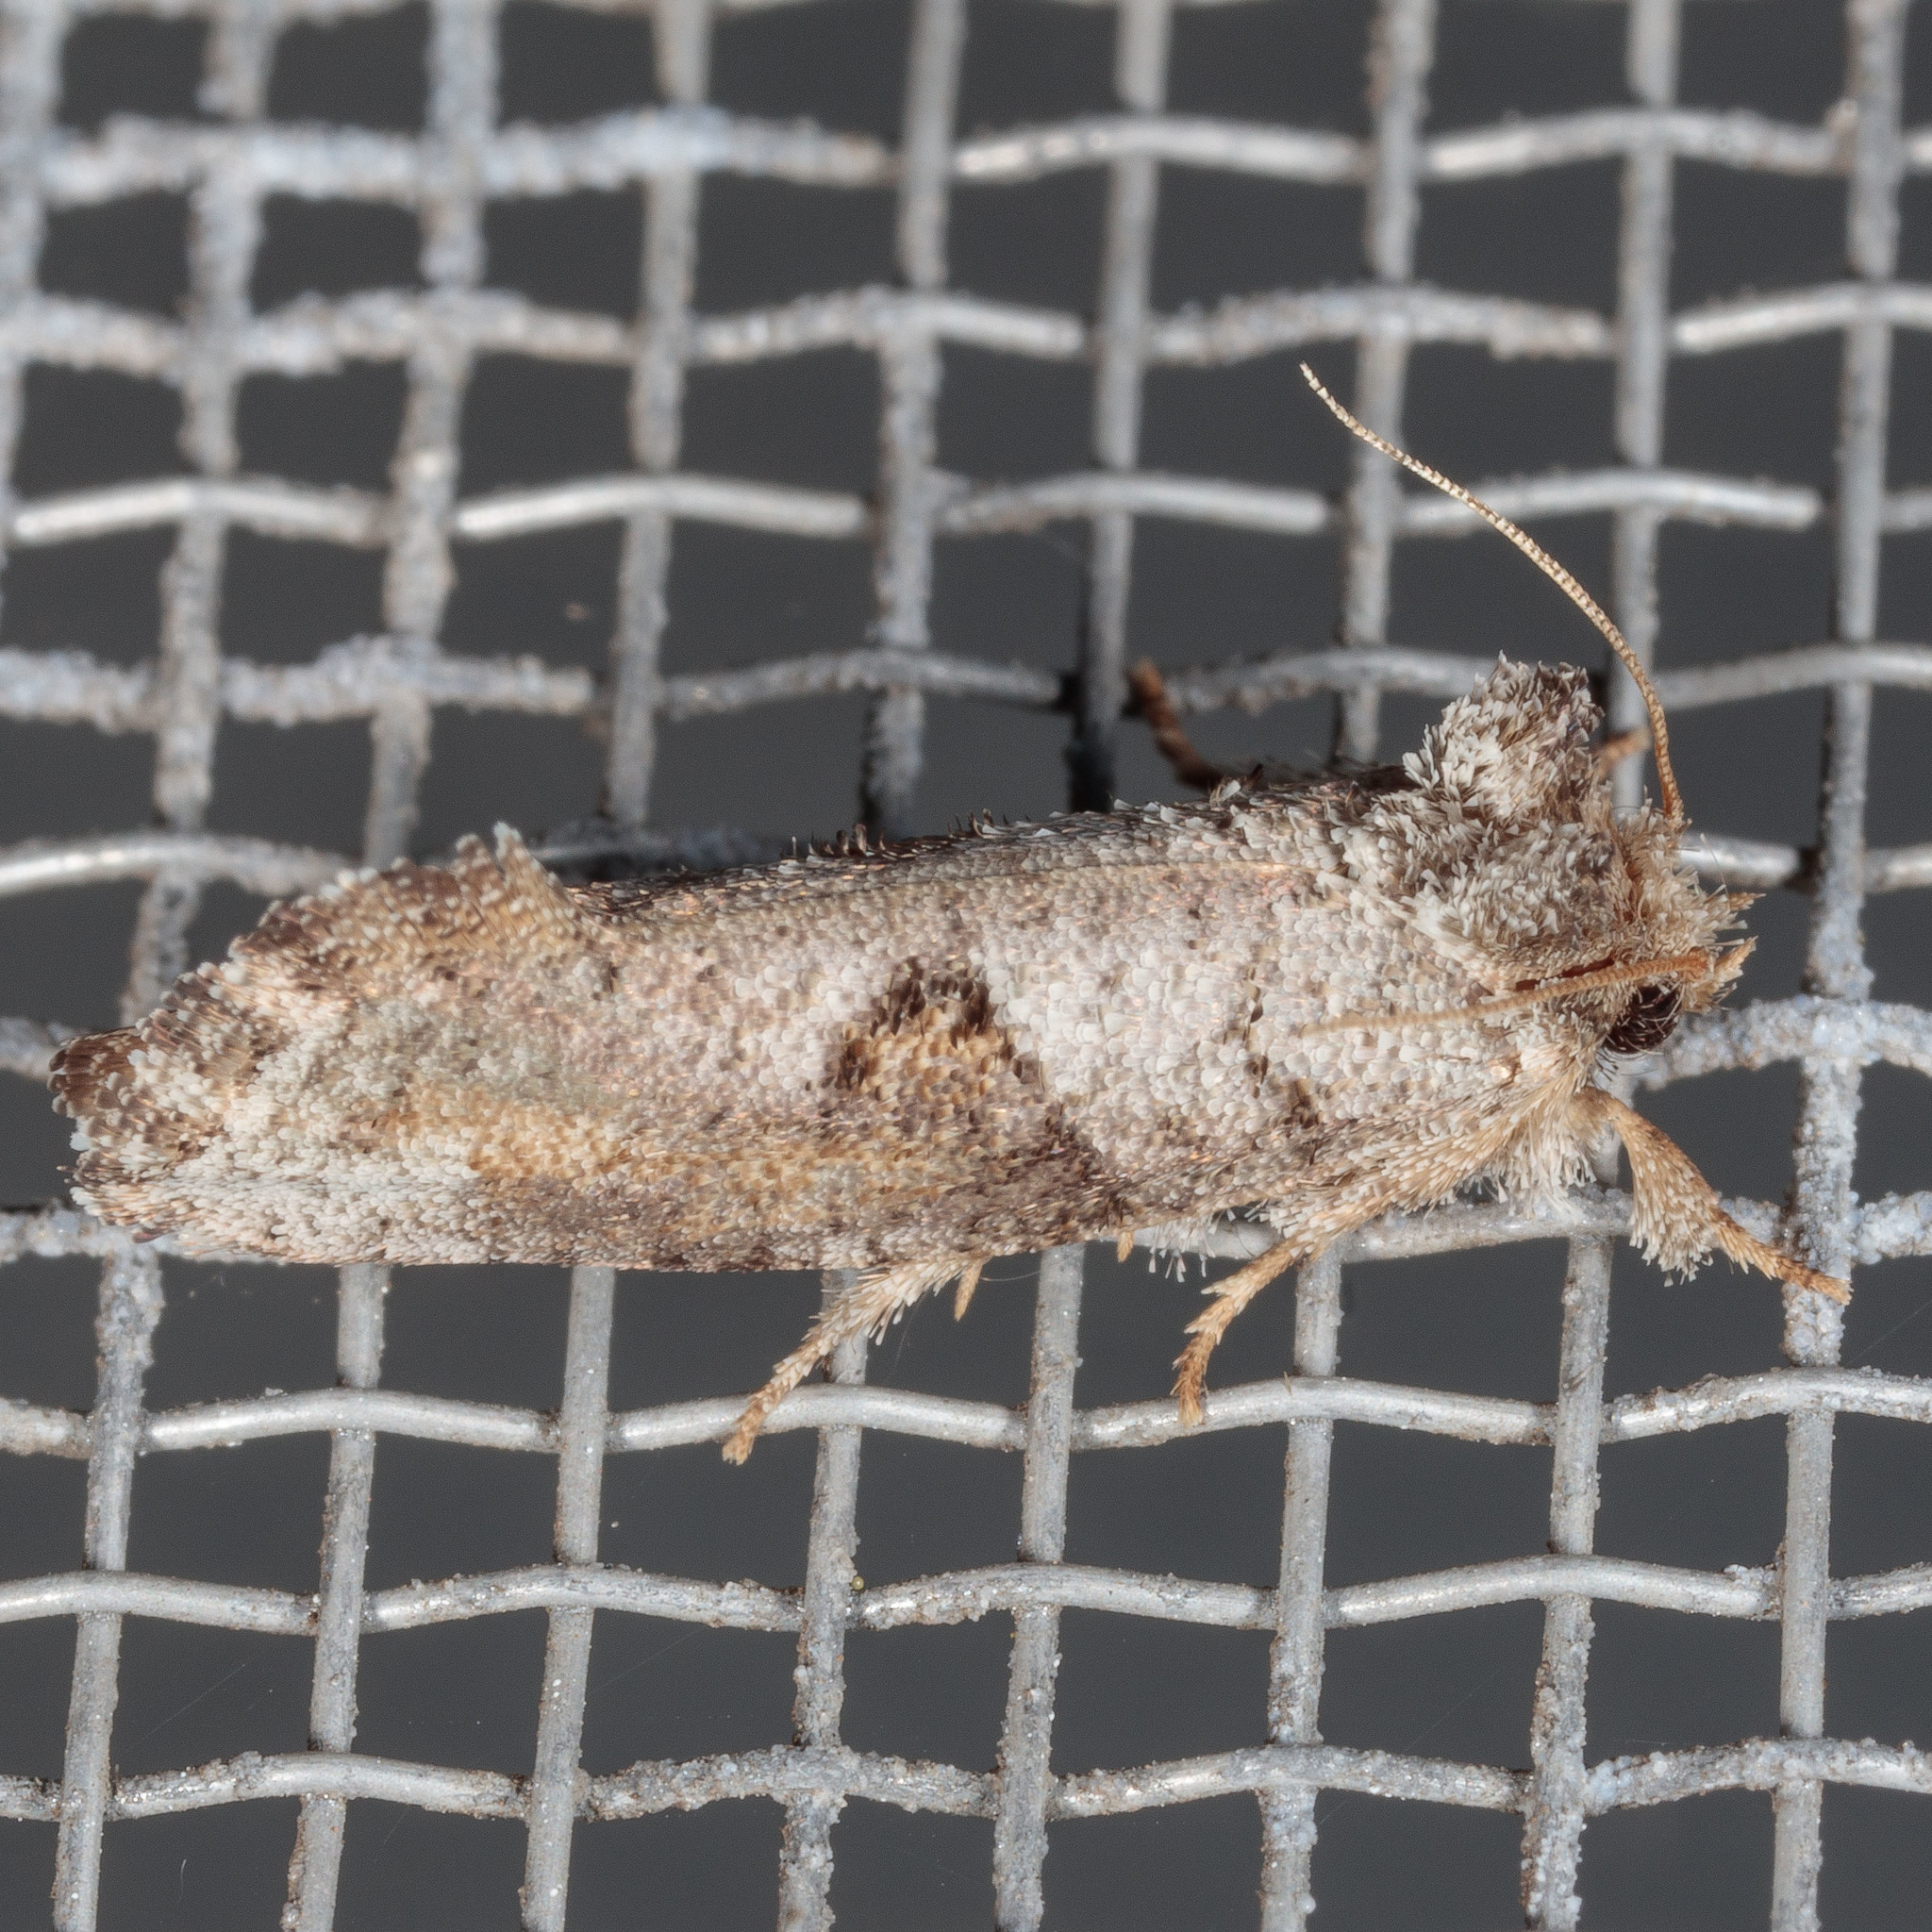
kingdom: Animalia
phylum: Arthropoda
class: Insecta
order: Lepidoptera
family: Tineidae
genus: Acrolophus
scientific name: Acrolophus piger
